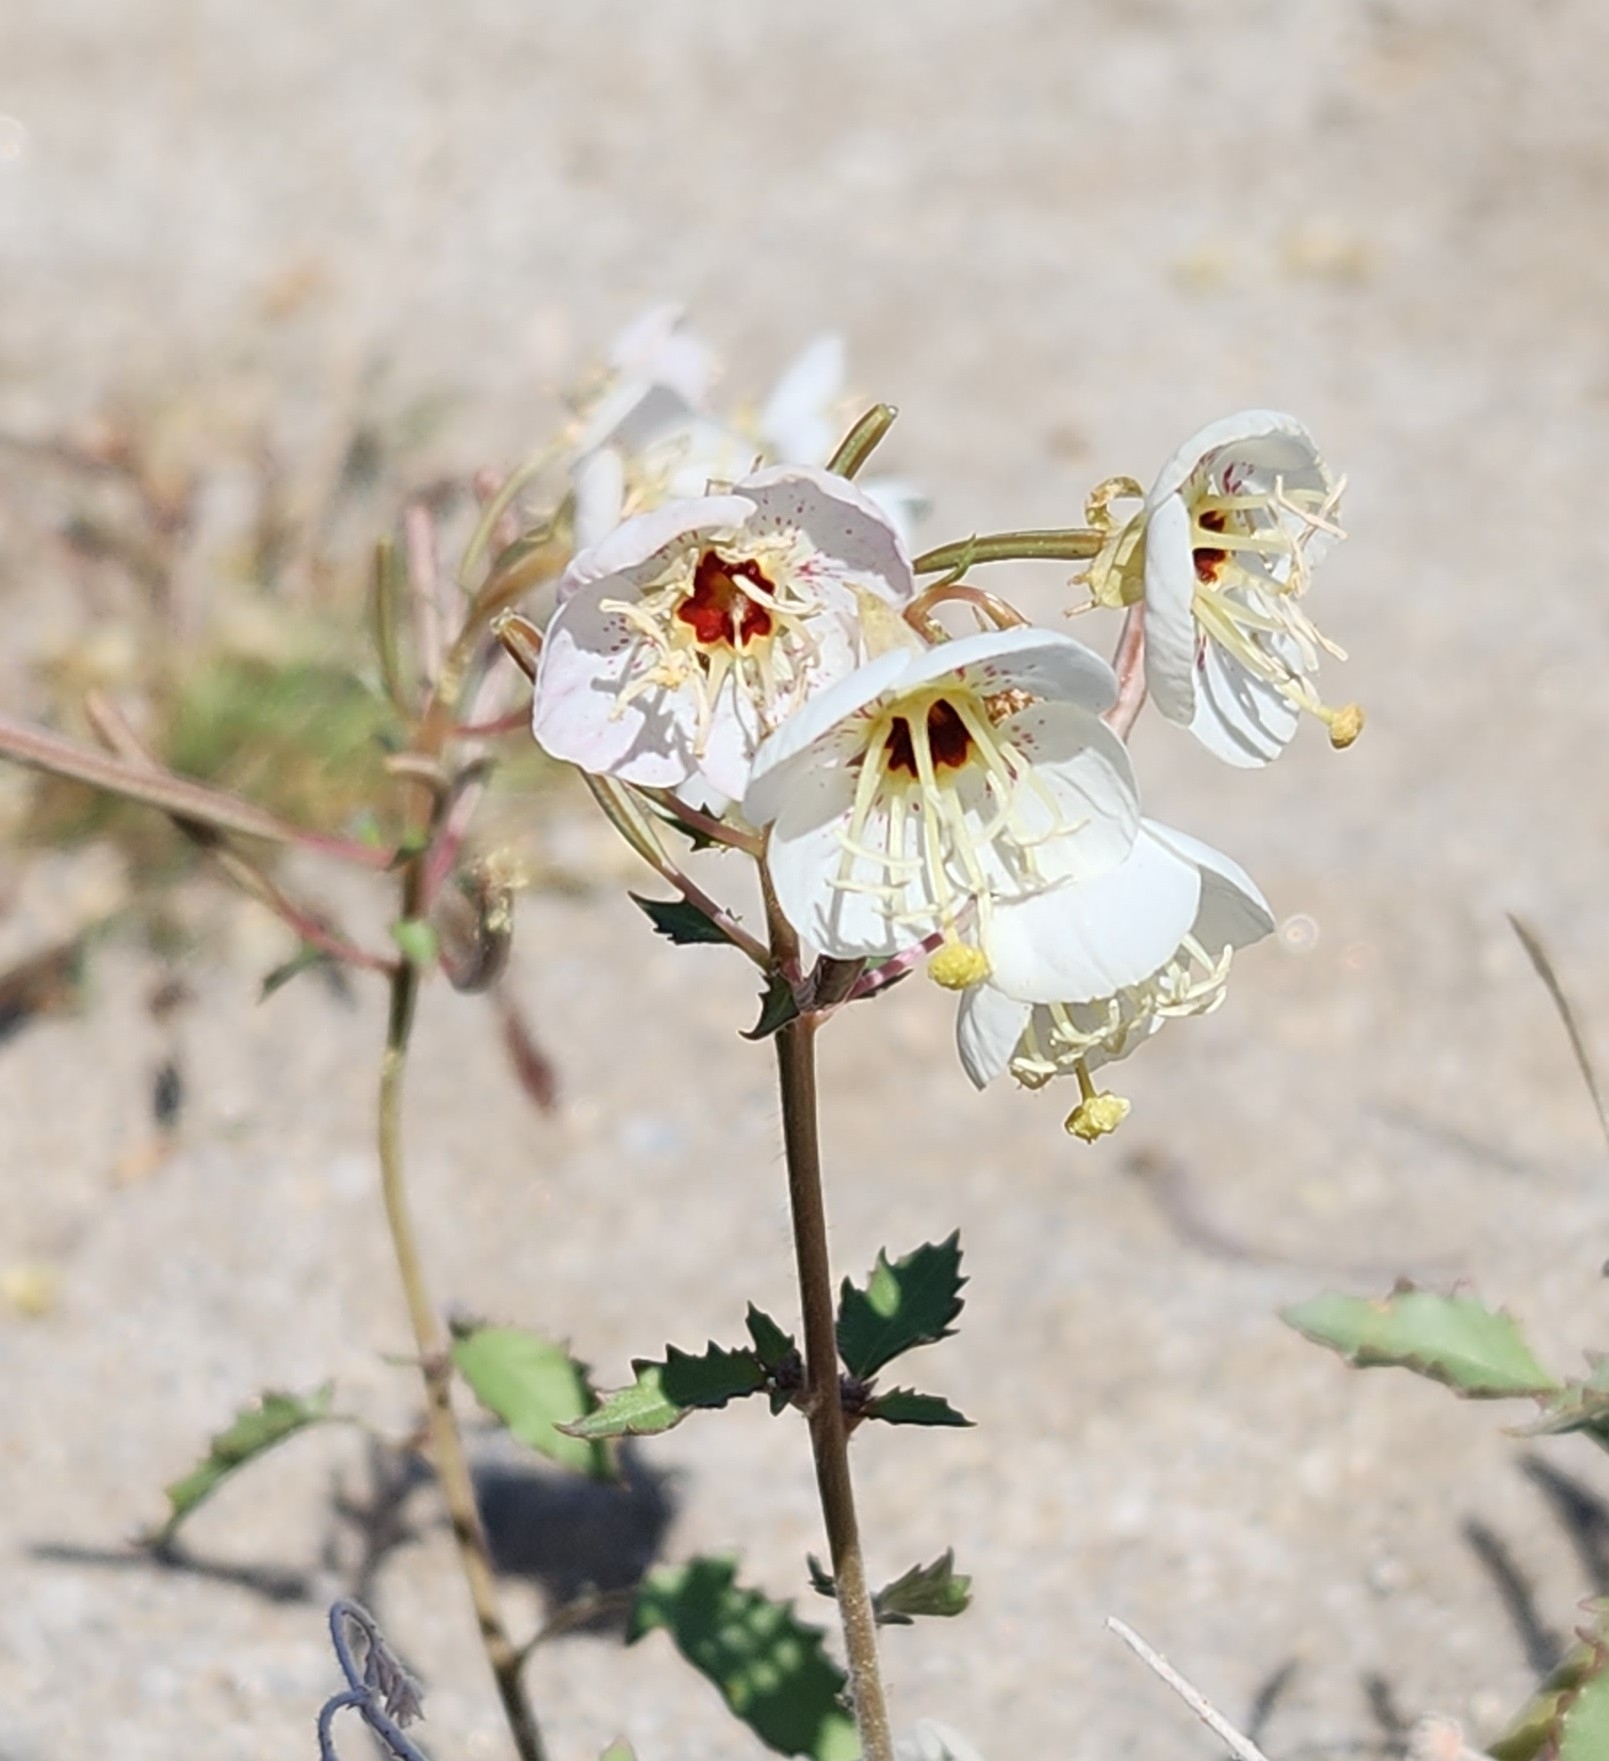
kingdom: Plantae
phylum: Tracheophyta
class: Magnoliopsida
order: Myrtales
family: Onagraceae
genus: Chylismia
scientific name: Chylismia claviformis
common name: Browneyes
